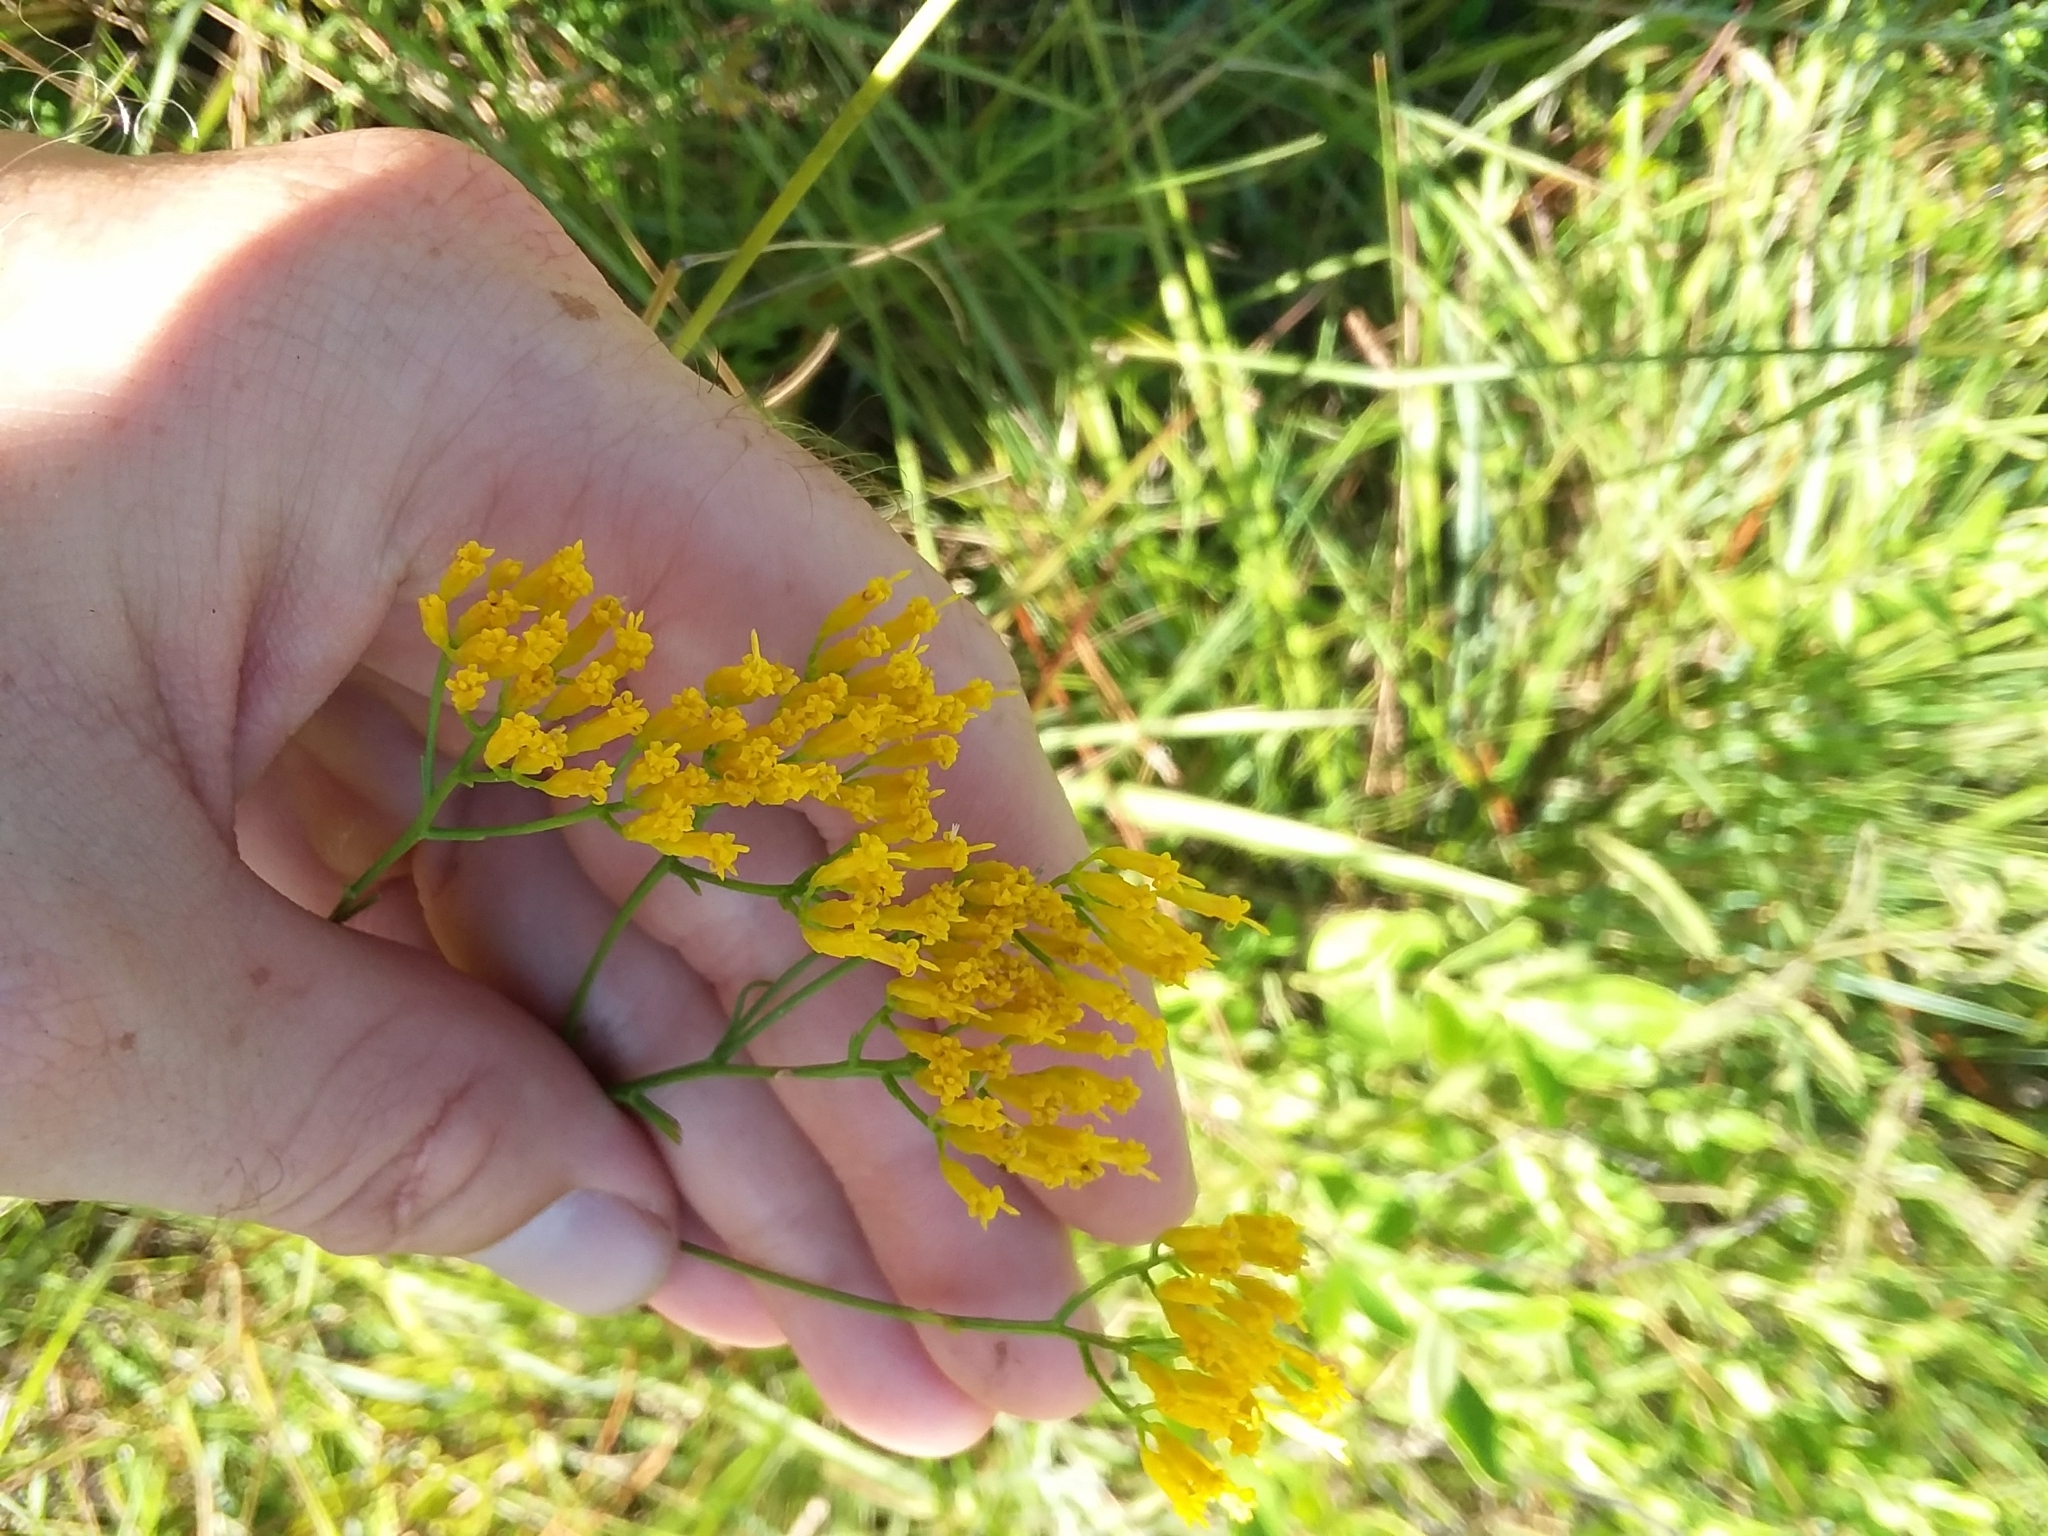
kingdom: Plantae
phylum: Tracheophyta
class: Magnoliopsida
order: Asterales
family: Asteraceae
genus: Bigelowia
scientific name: Bigelowia nudata
